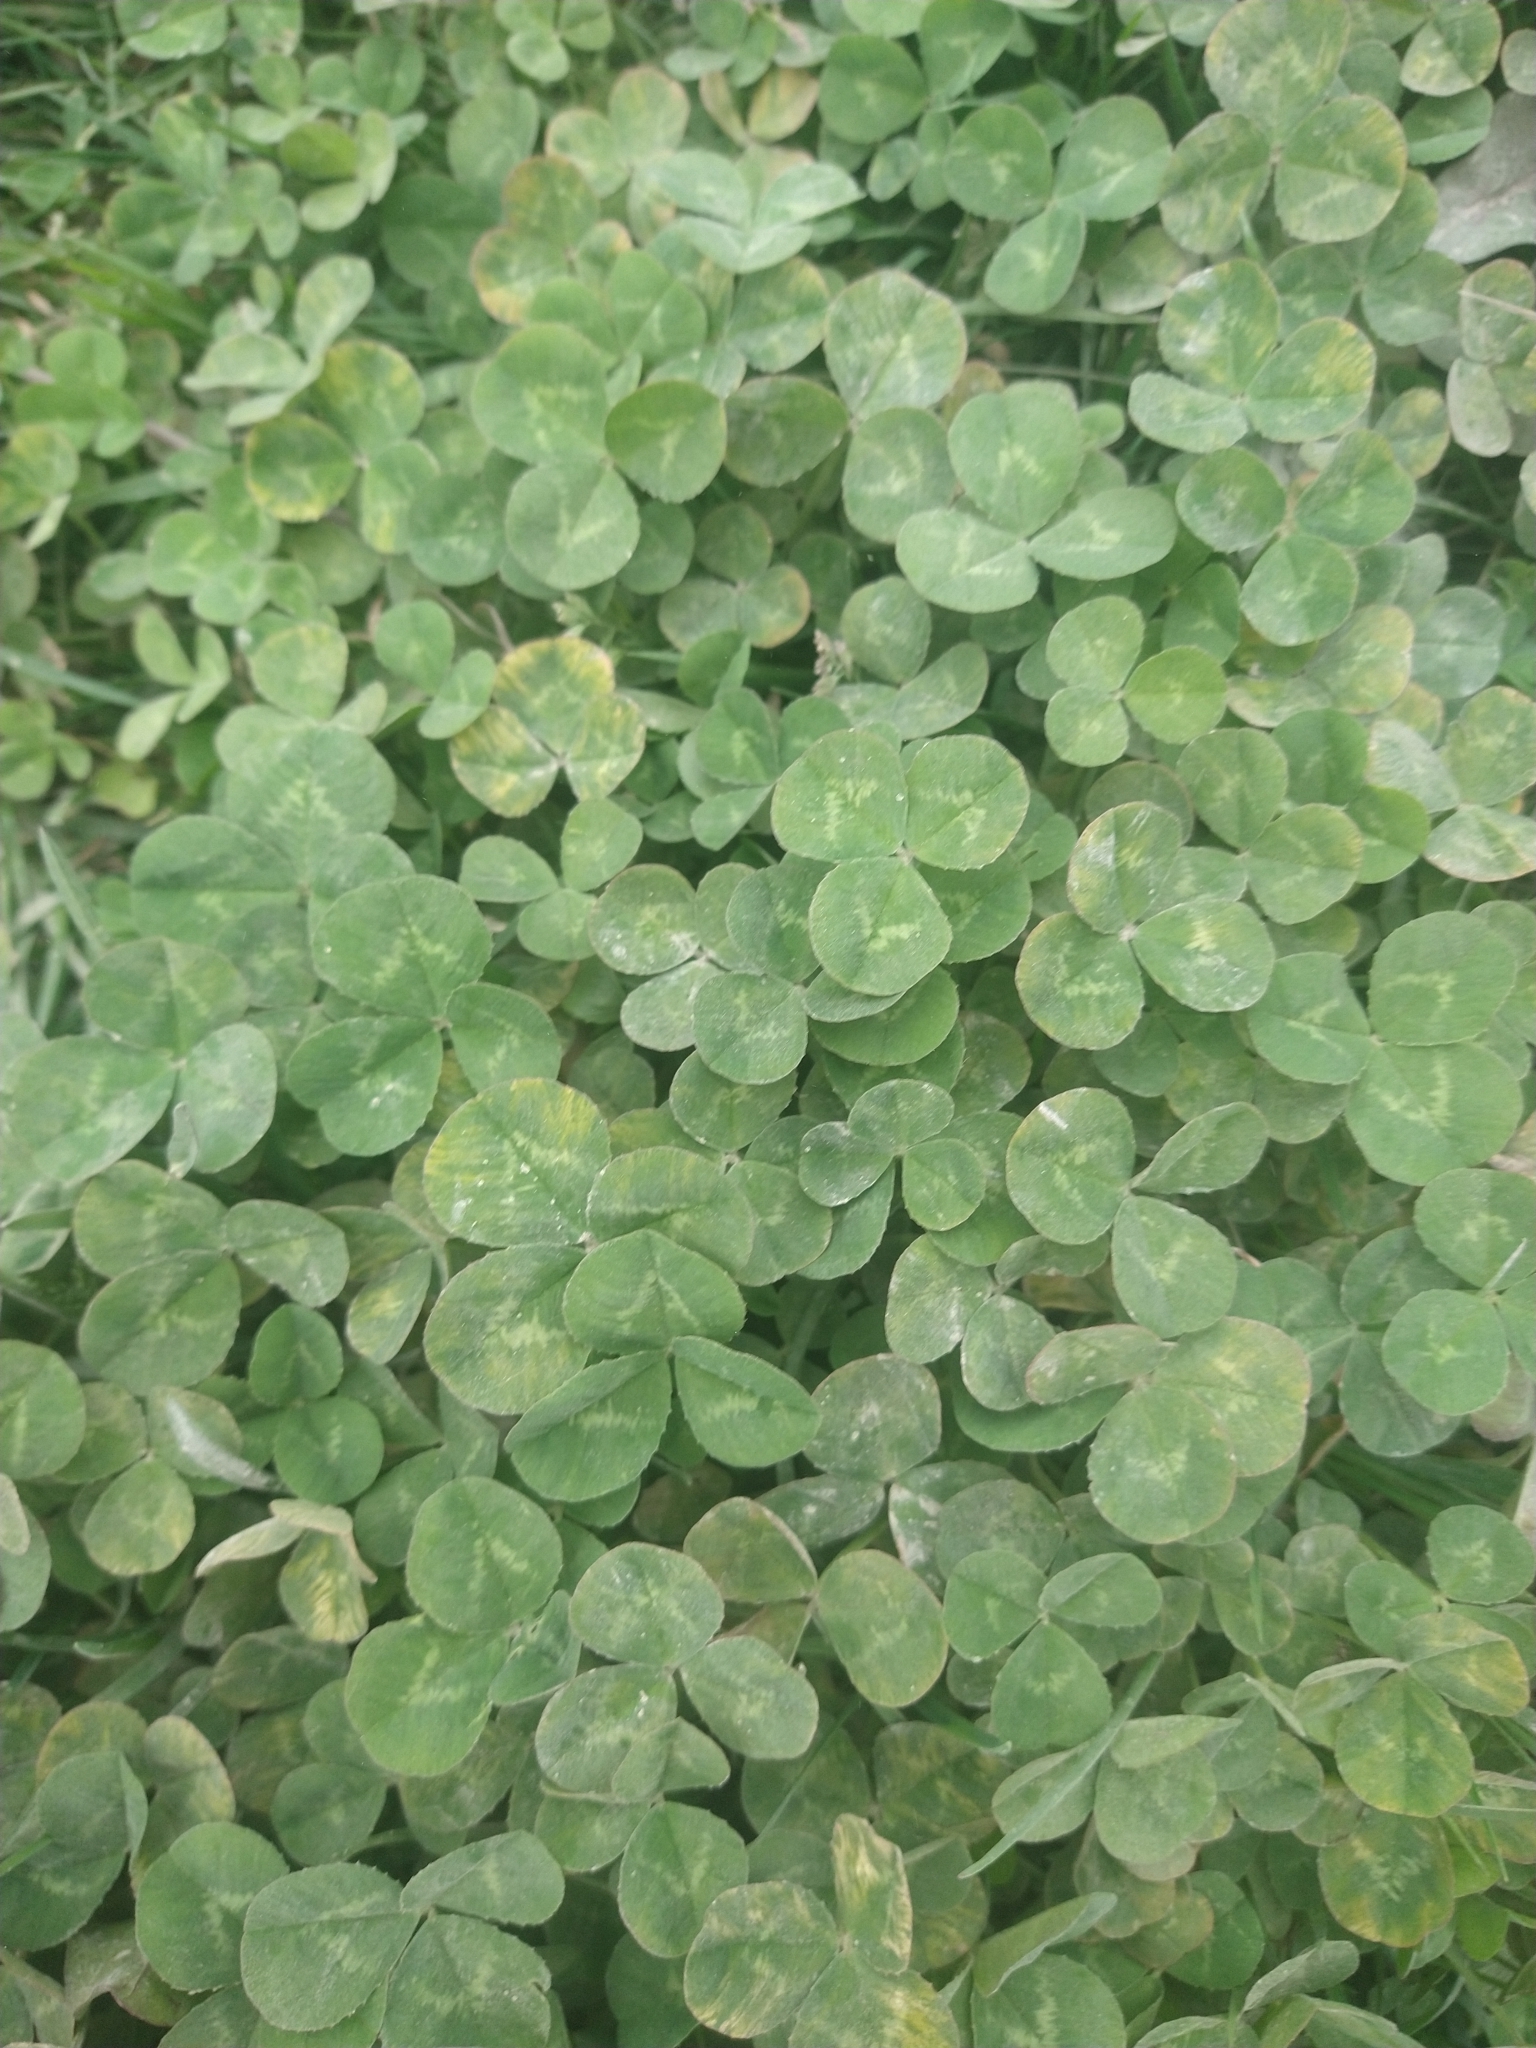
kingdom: Plantae
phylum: Tracheophyta
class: Magnoliopsida
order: Fabales
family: Fabaceae
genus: Trifolium
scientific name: Trifolium repens
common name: White clover
